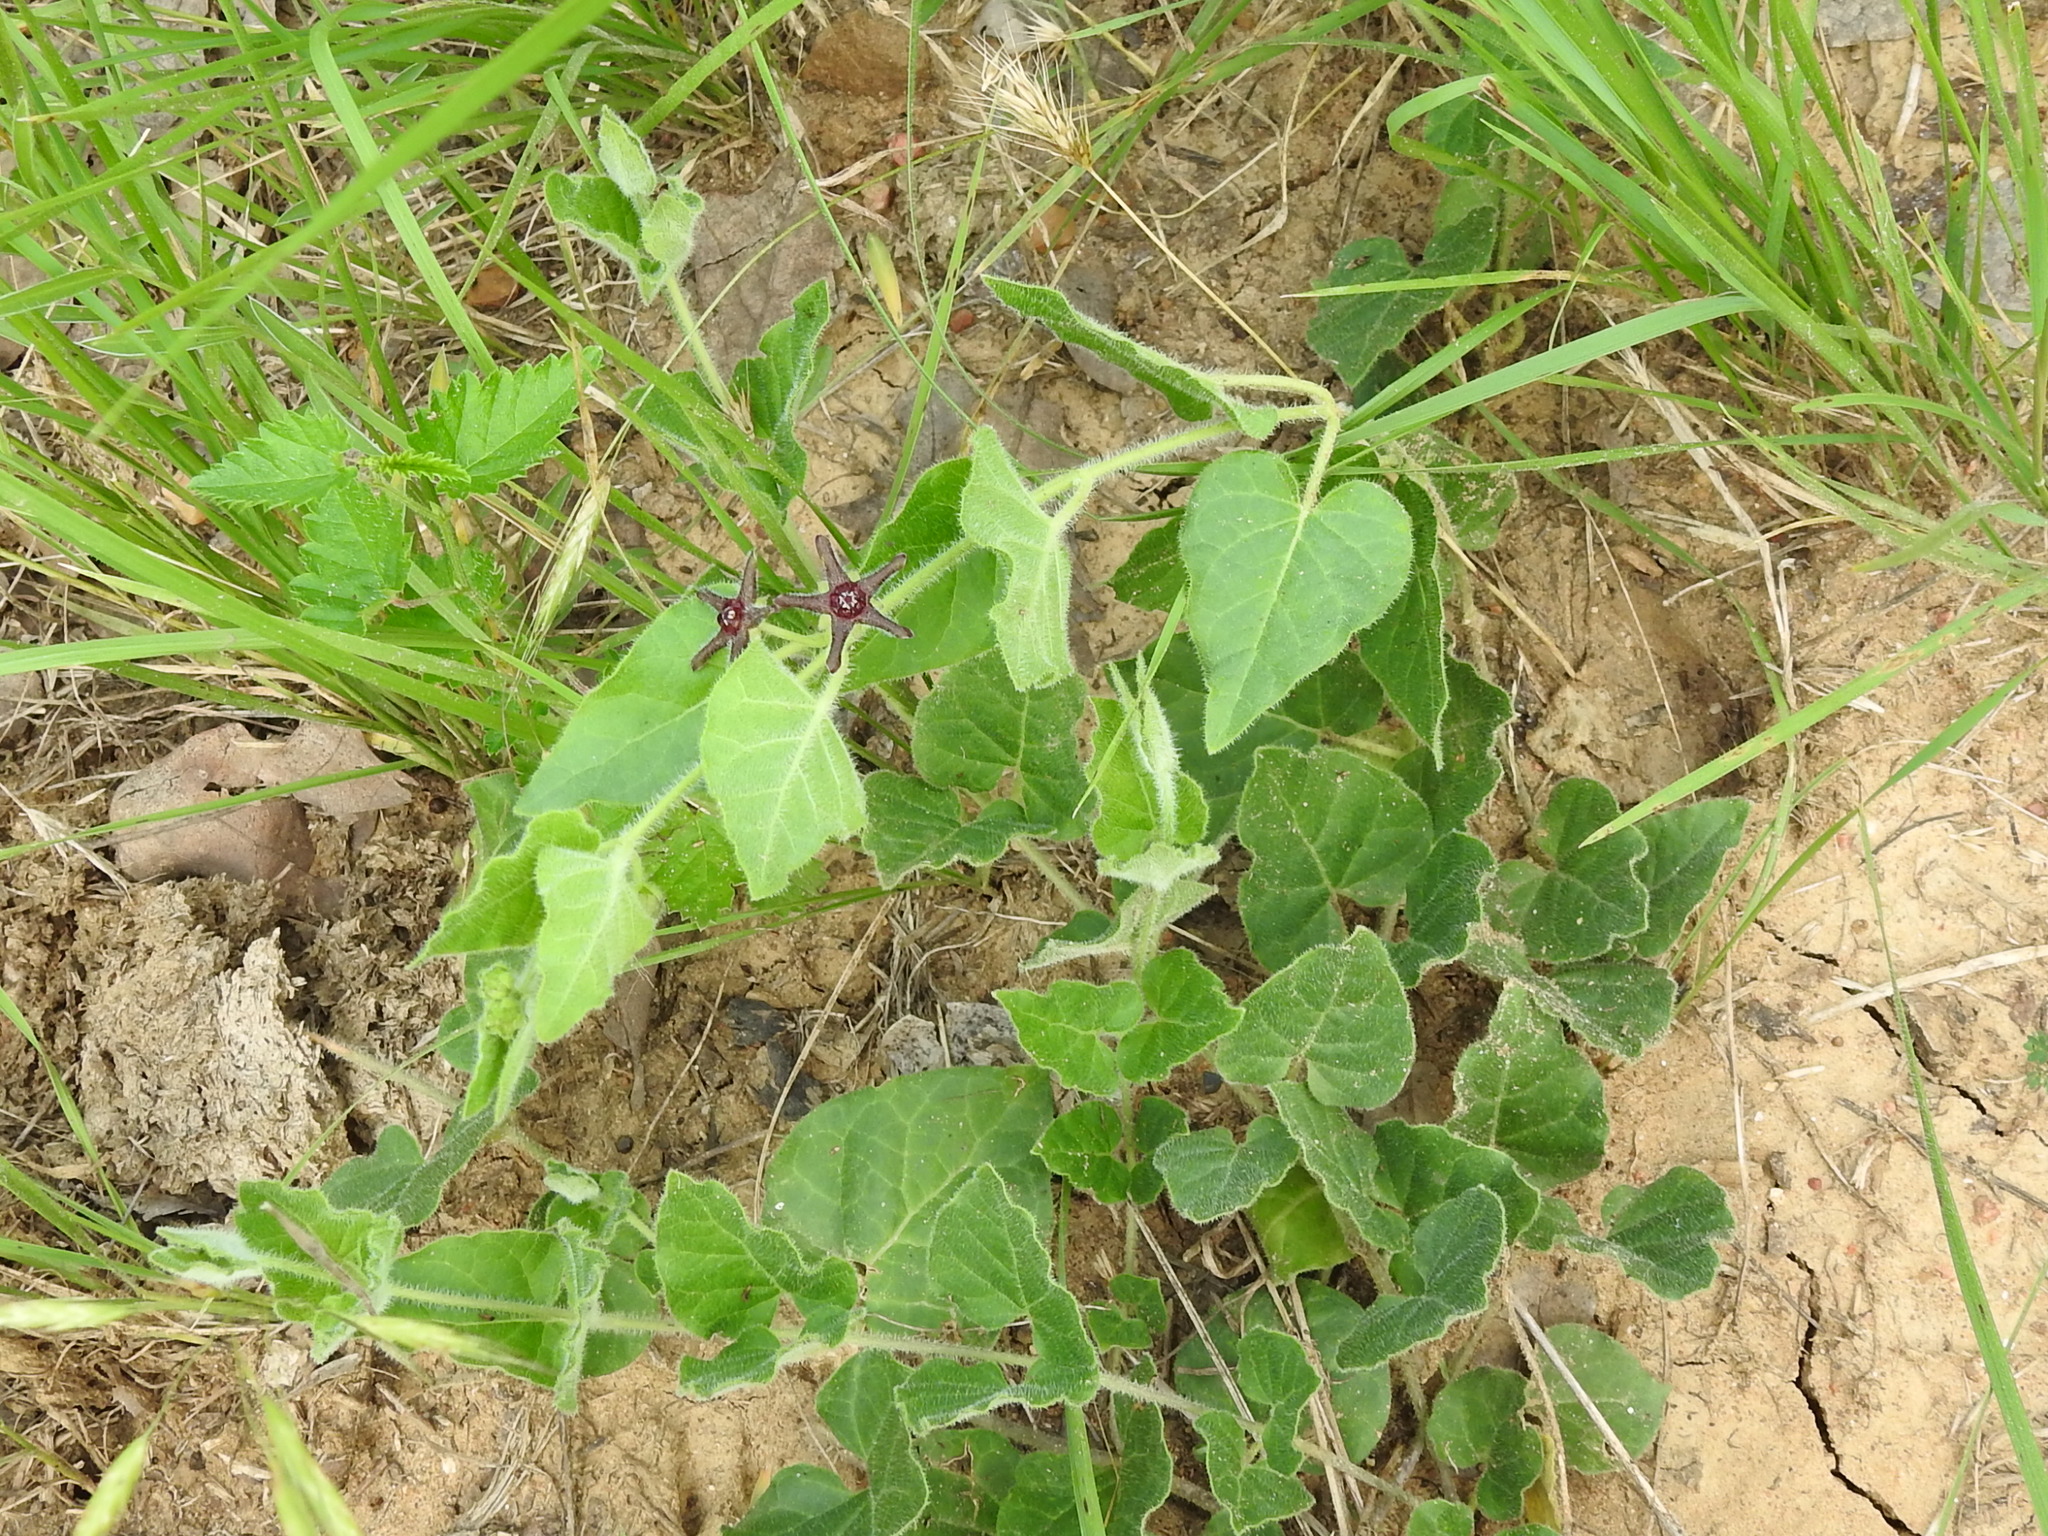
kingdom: Plantae
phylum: Tracheophyta
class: Magnoliopsida
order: Gentianales
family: Apocynaceae
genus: Chthamalia
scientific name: Chthamalia biflora
